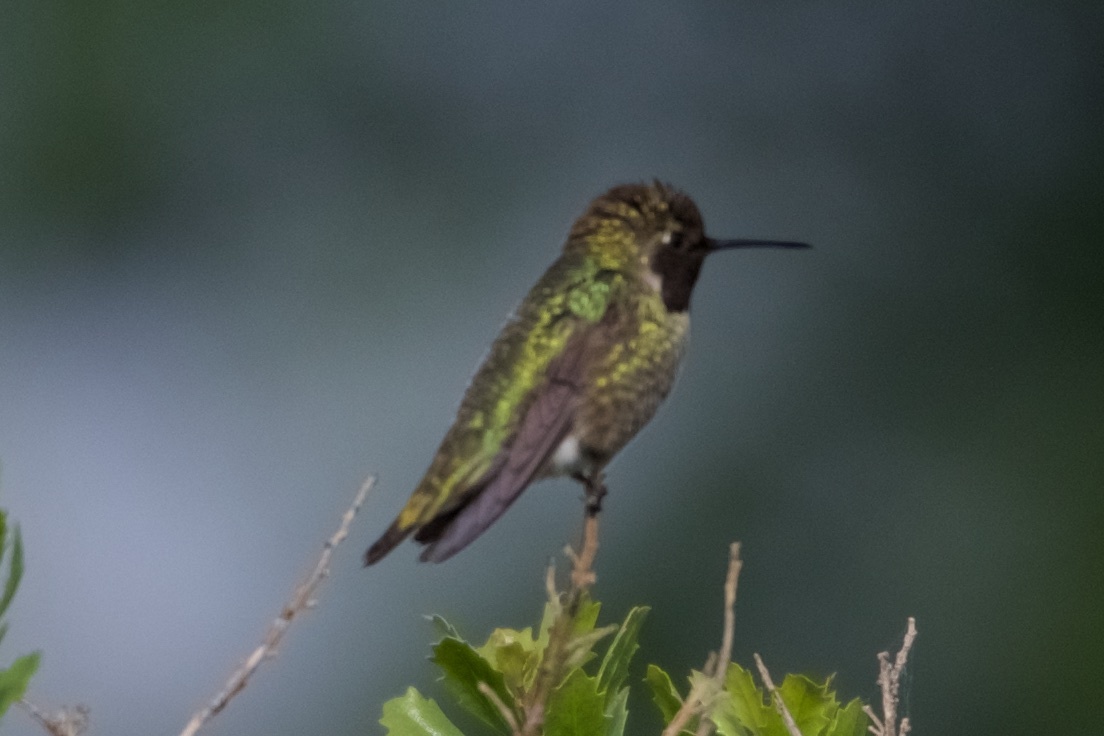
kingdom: Animalia
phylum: Chordata
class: Aves
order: Apodiformes
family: Trochilidae
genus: Calypte
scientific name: Calypte anna
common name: Anna's hummingbird
